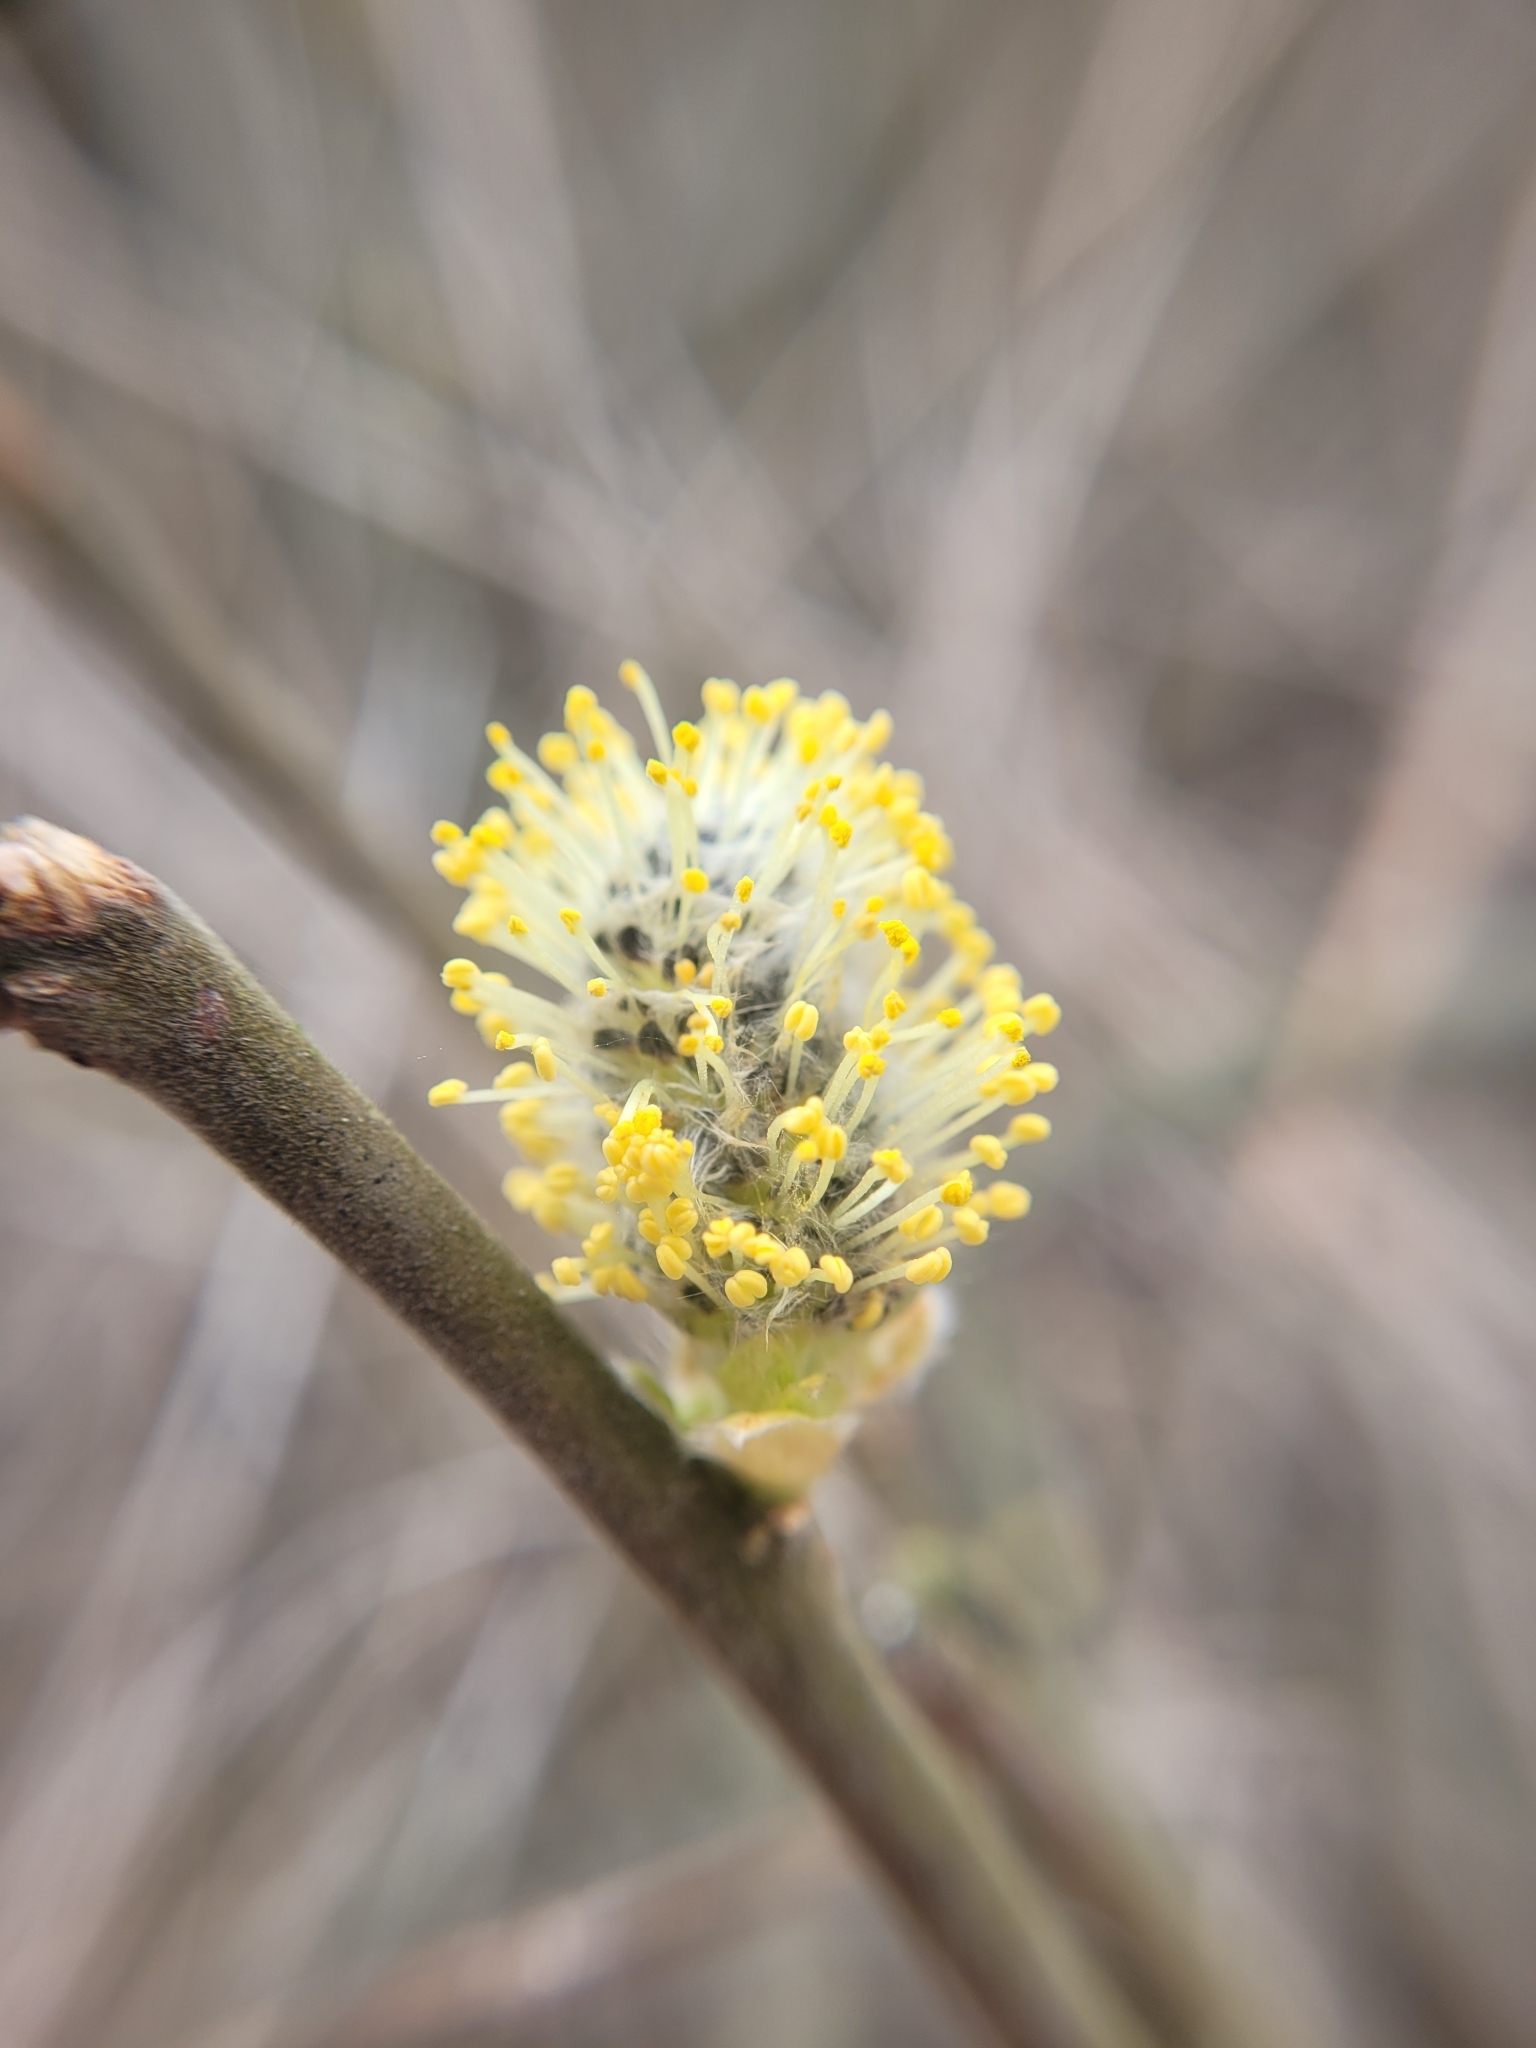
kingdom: Plantae
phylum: Tracheophyta
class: Magnoliopsida
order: Malpighiales
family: Salicaceae
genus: Salix
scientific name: Salix caprea
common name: Goat willow
